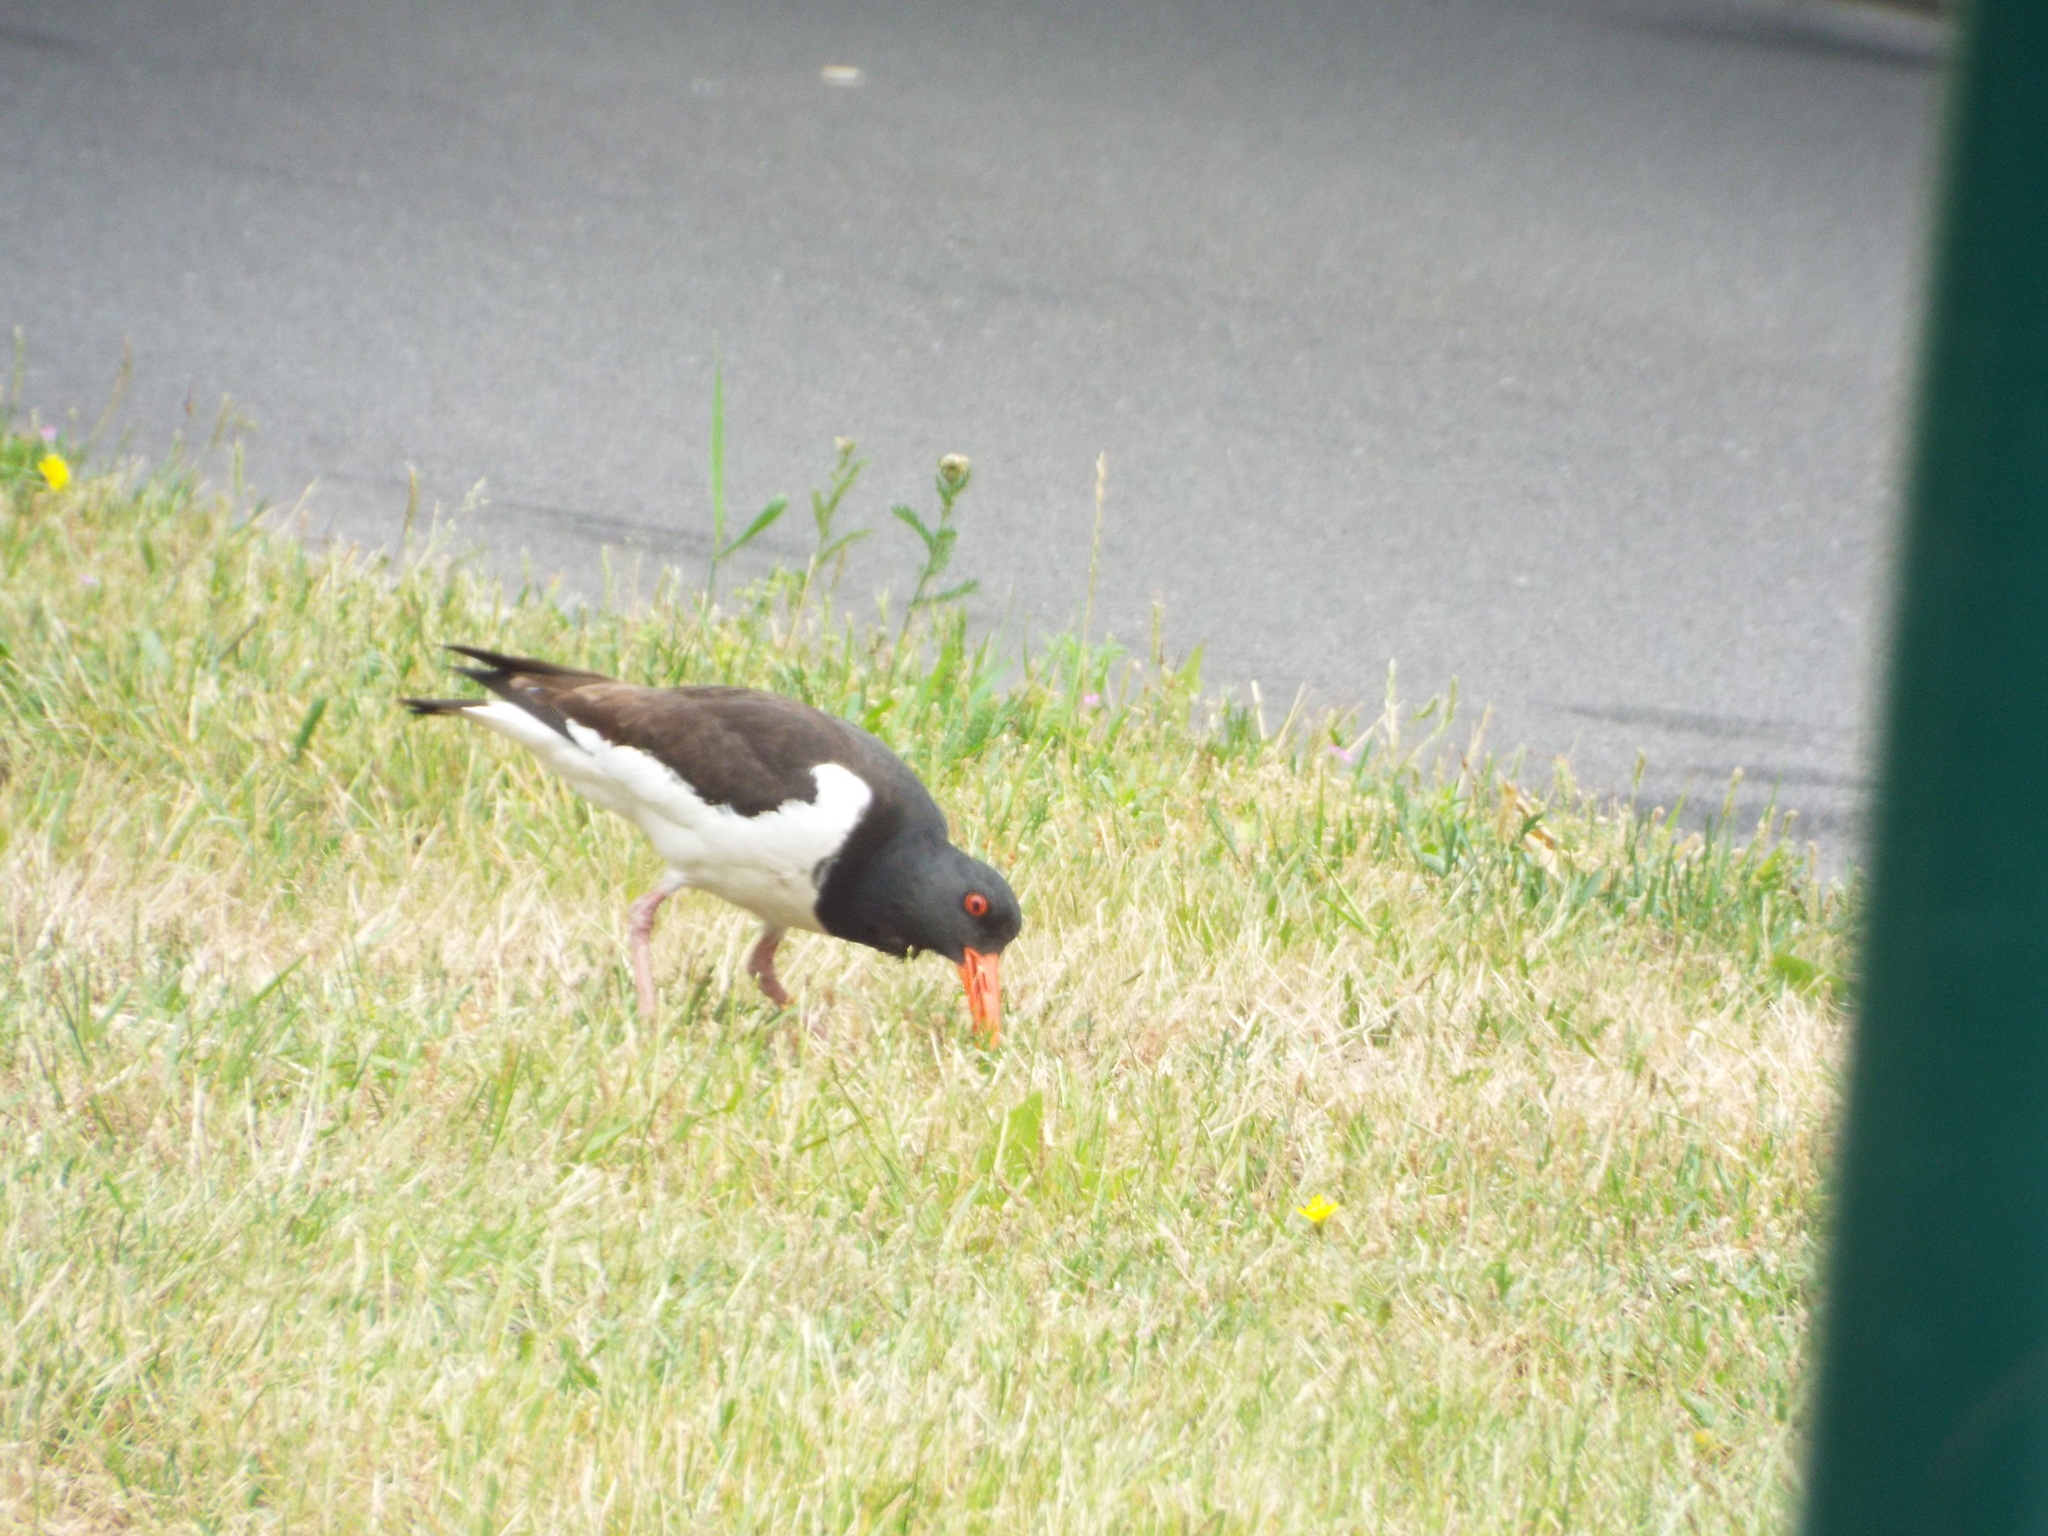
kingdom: Animalia
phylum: Chordata
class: Aves
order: Charadriiformes
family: Haematopodidae
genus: Haematopus
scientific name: Haematopus ostralegus
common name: Eurasian oystercatcher
